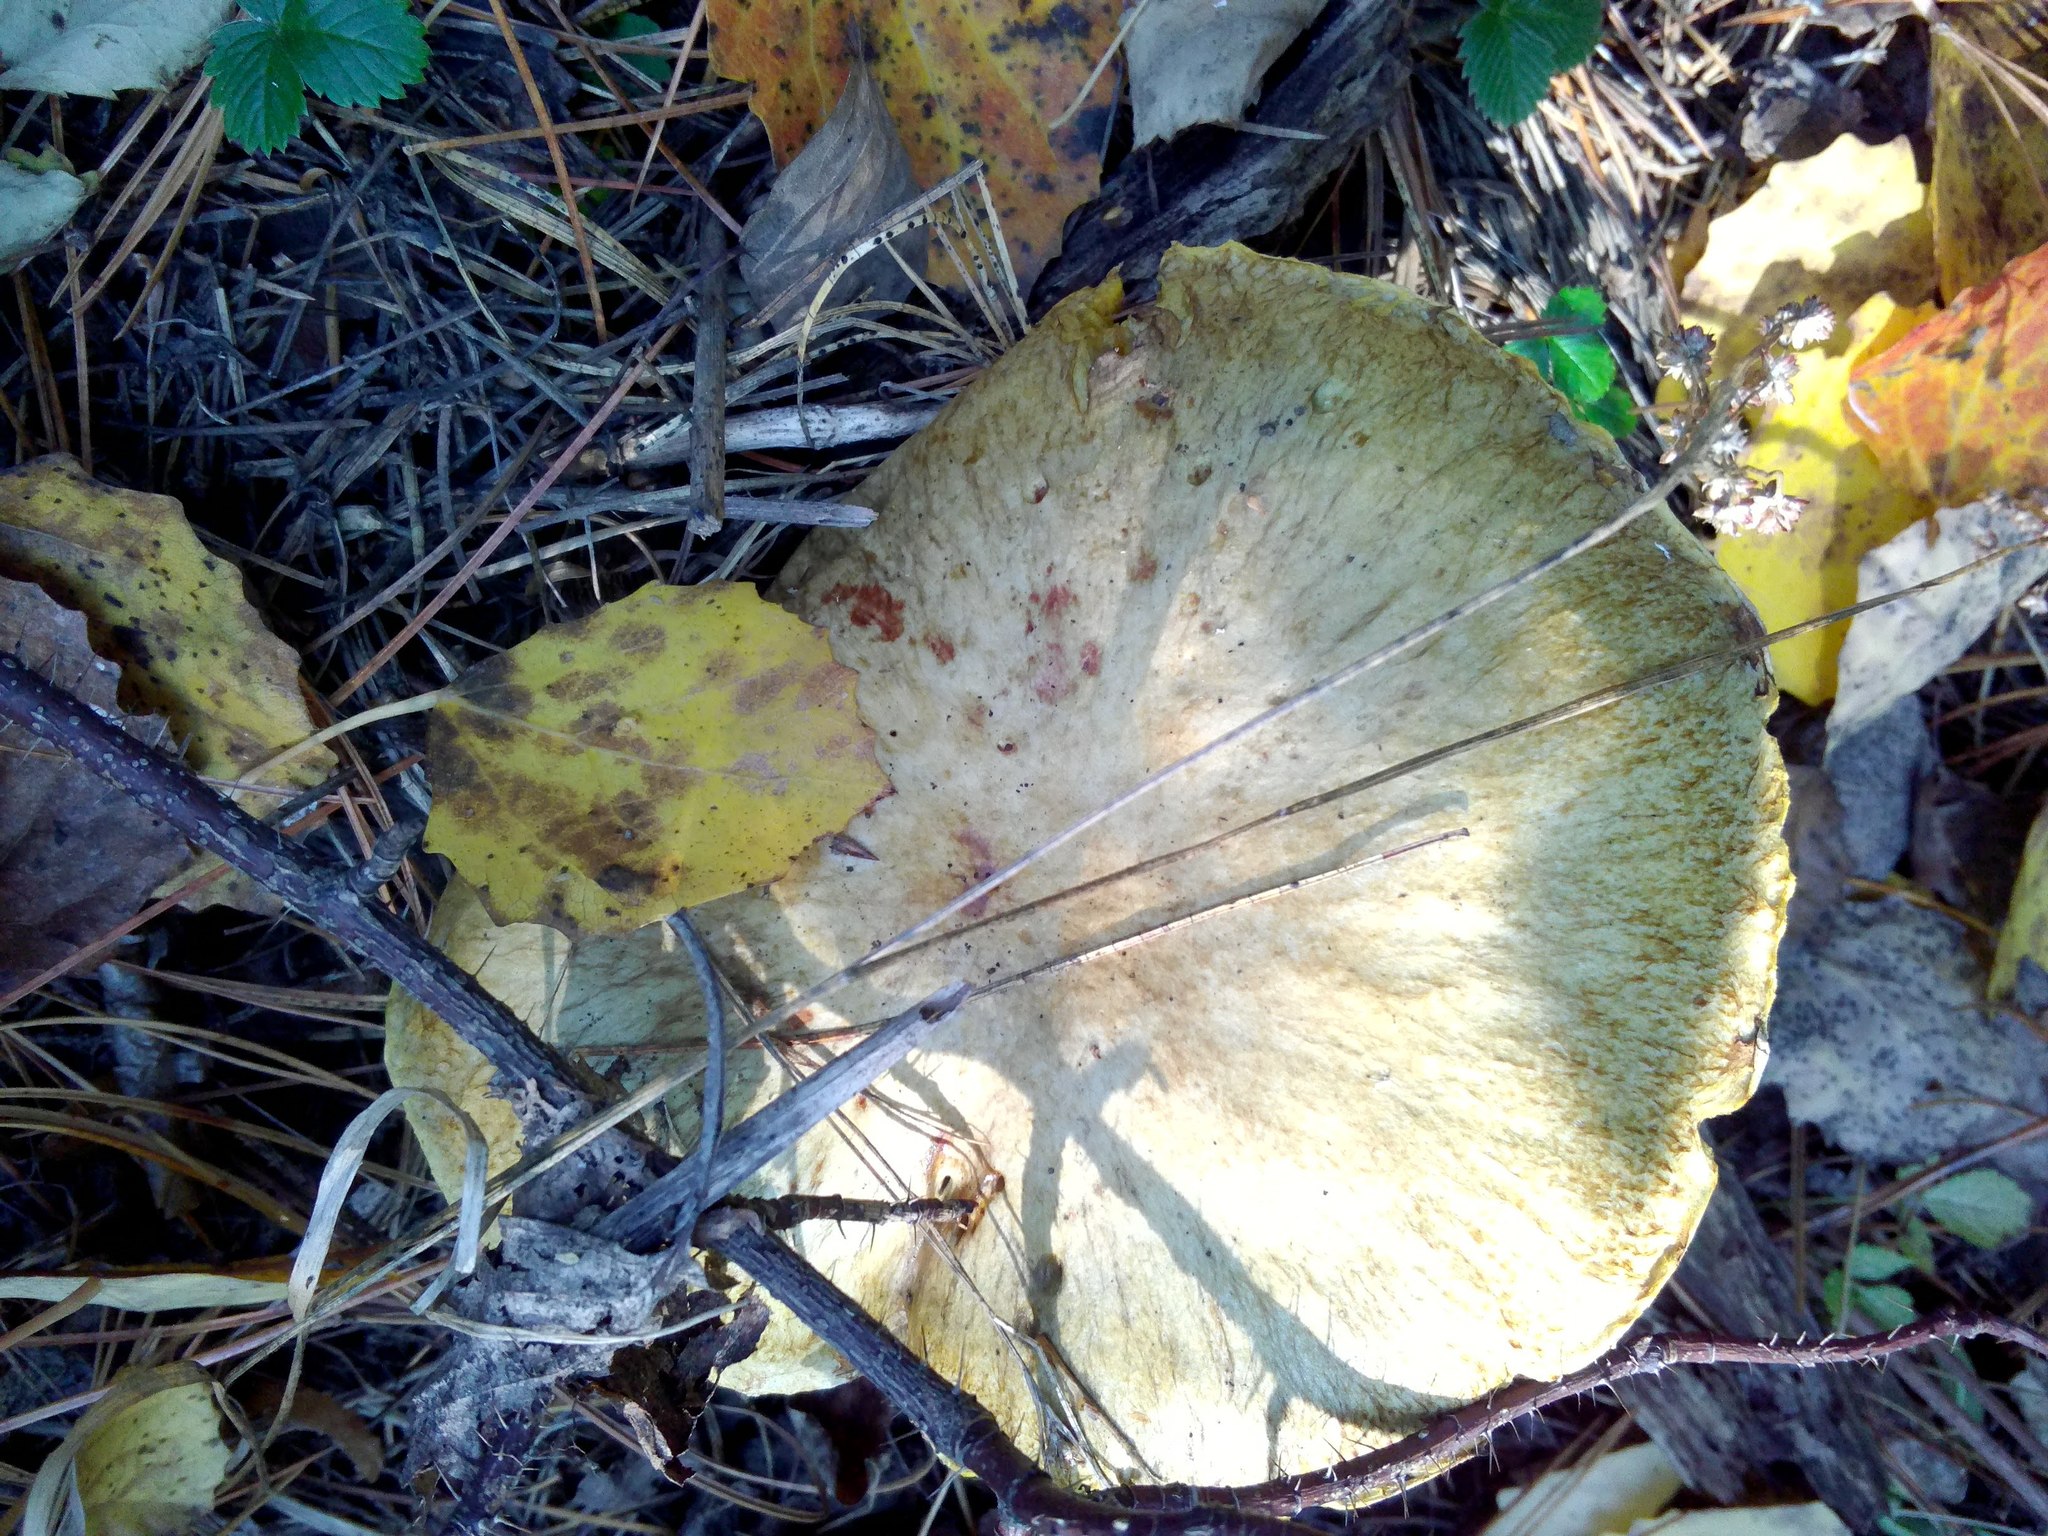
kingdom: Fungi
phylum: Basidiomycota
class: Agaricomycetes
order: Boletales
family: Suillaceae
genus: Suillus
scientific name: Suillus americanus
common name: Chicken fat mushroom
